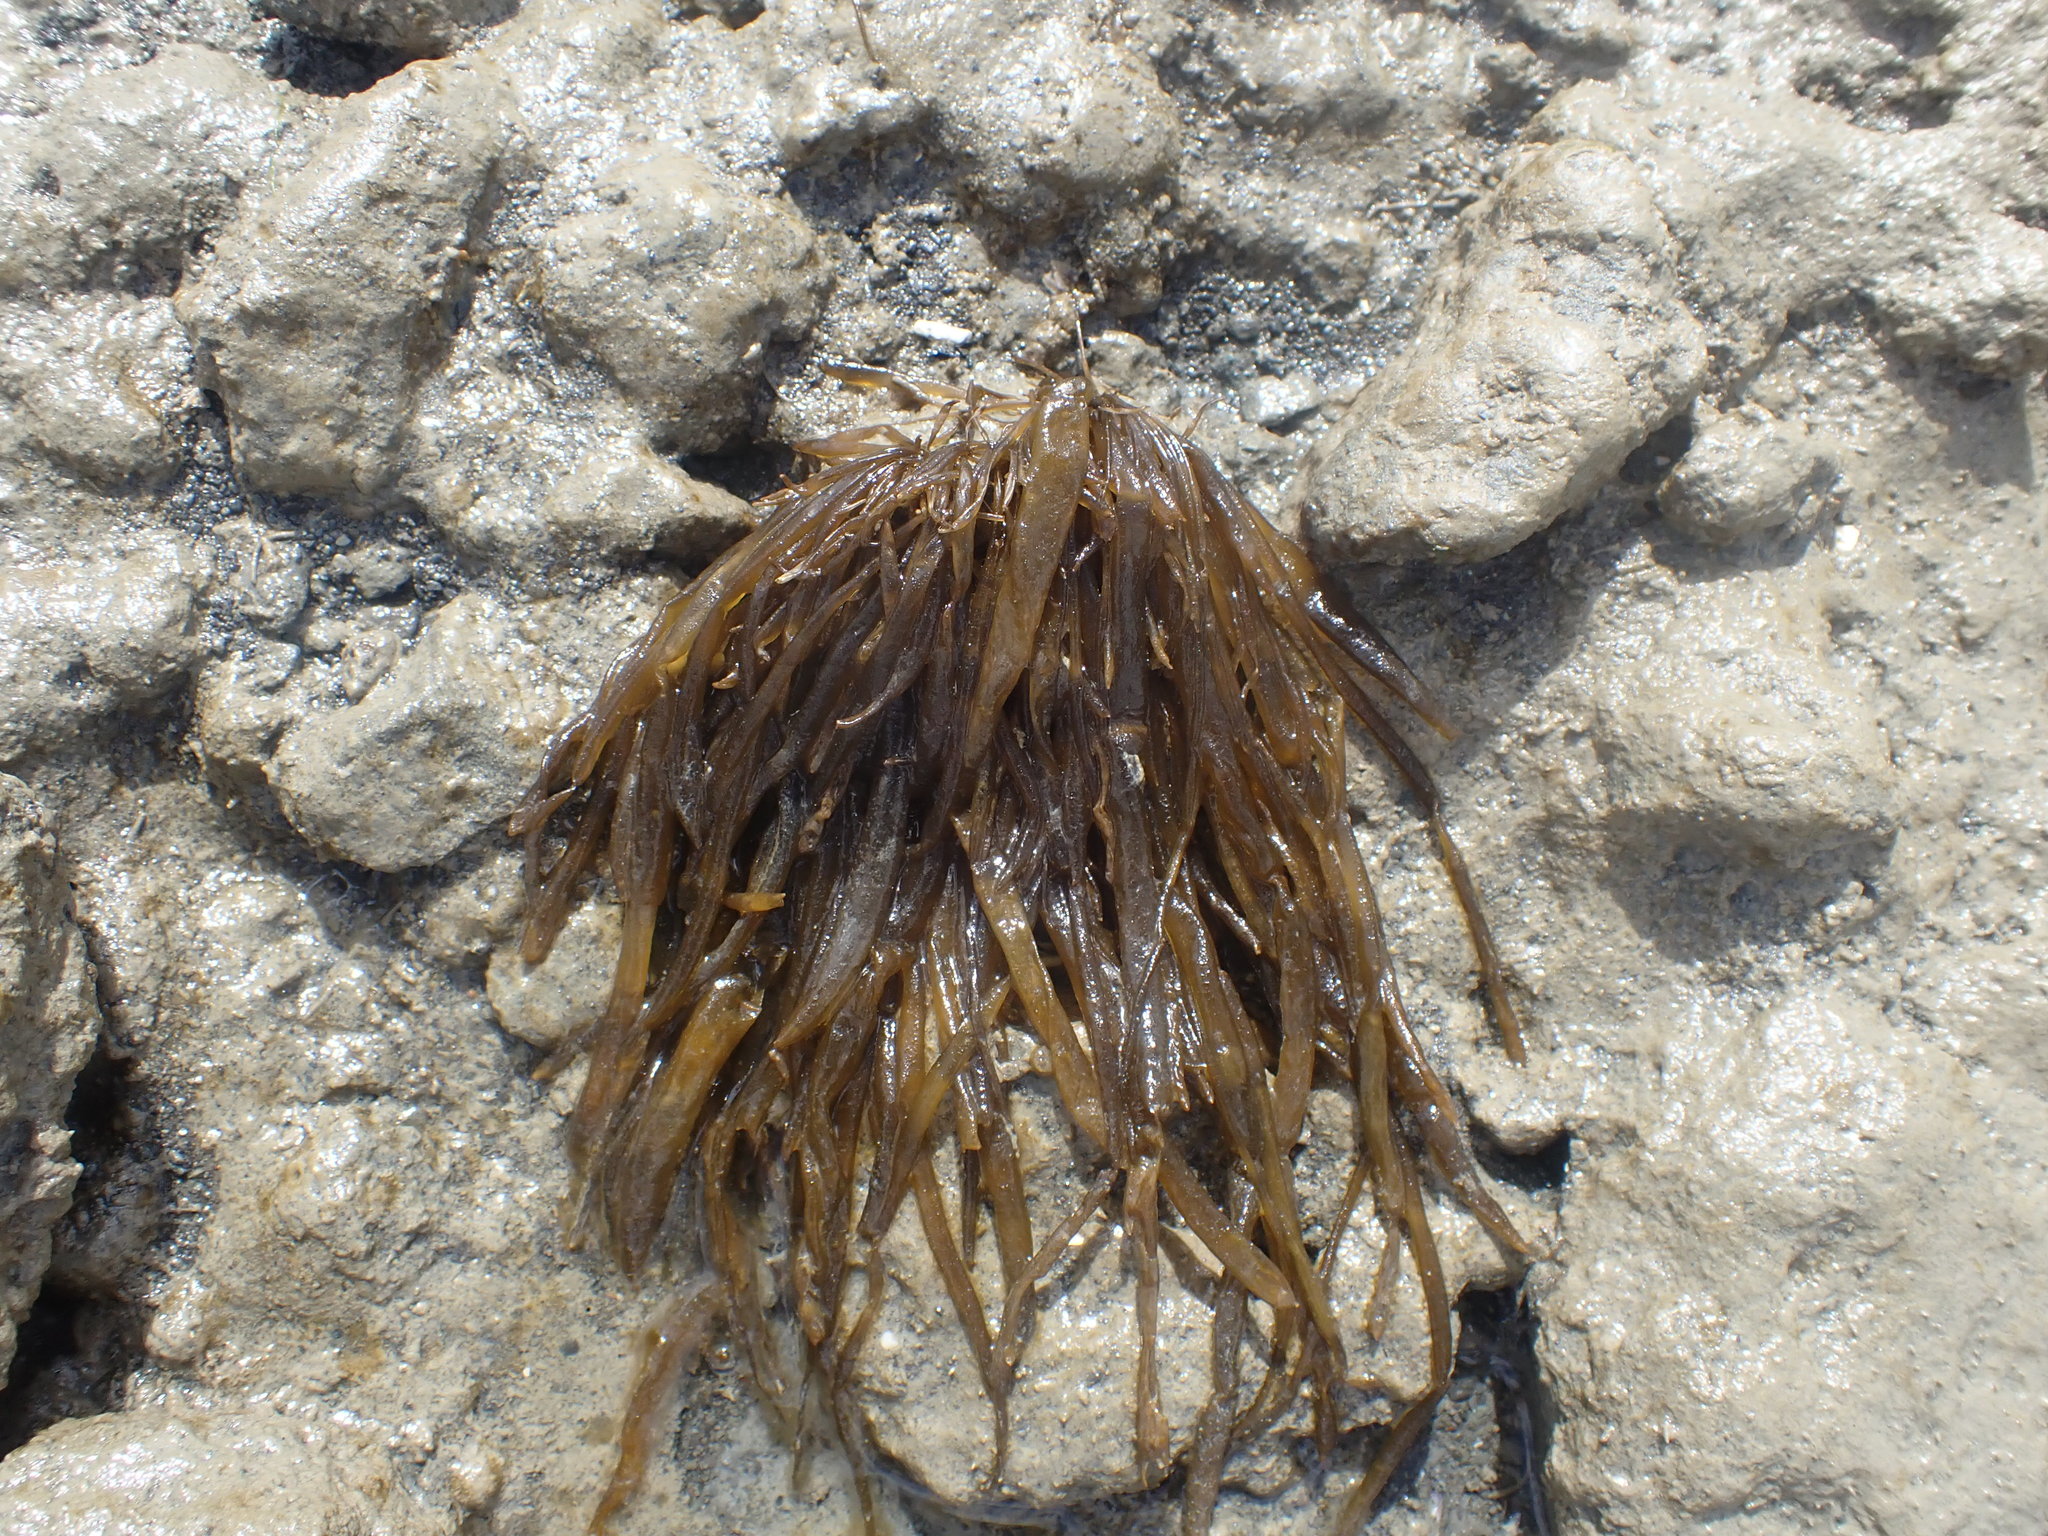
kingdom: Chromista
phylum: Ochrophyta
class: Phaeophyceae
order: Scytosiphonales
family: Scytosiphonaceae
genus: Scytosiphon
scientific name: Scytosiphon lomentaria
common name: Beanweed
